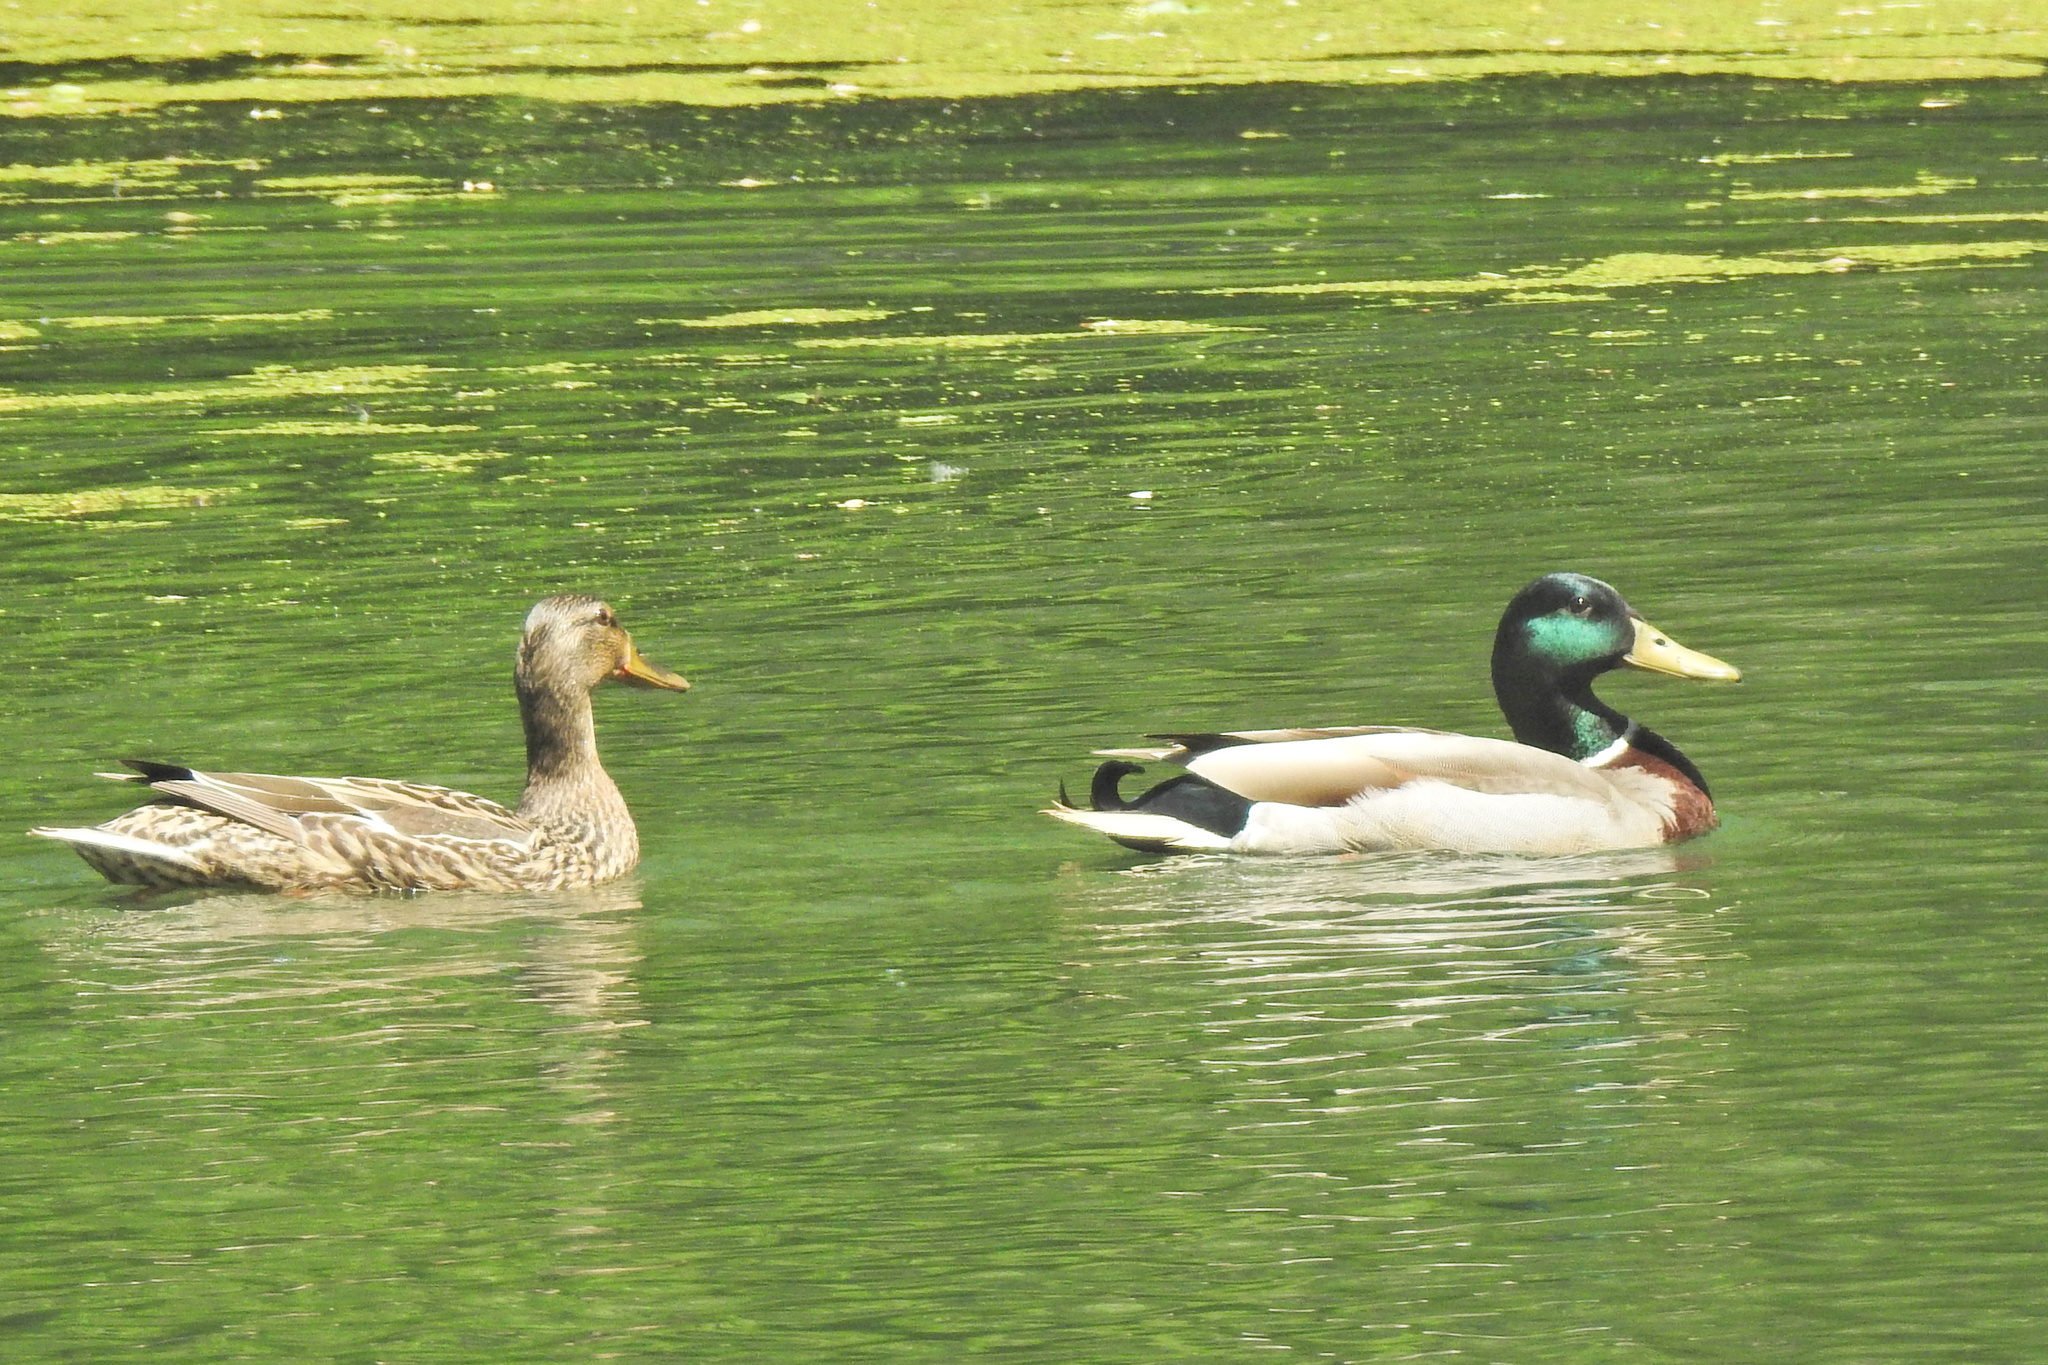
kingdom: Animalia
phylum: Chordata
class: Aves
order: Anseriformes
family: Anatidae
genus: Anas
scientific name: Anas platyrhynchos
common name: Mallard
